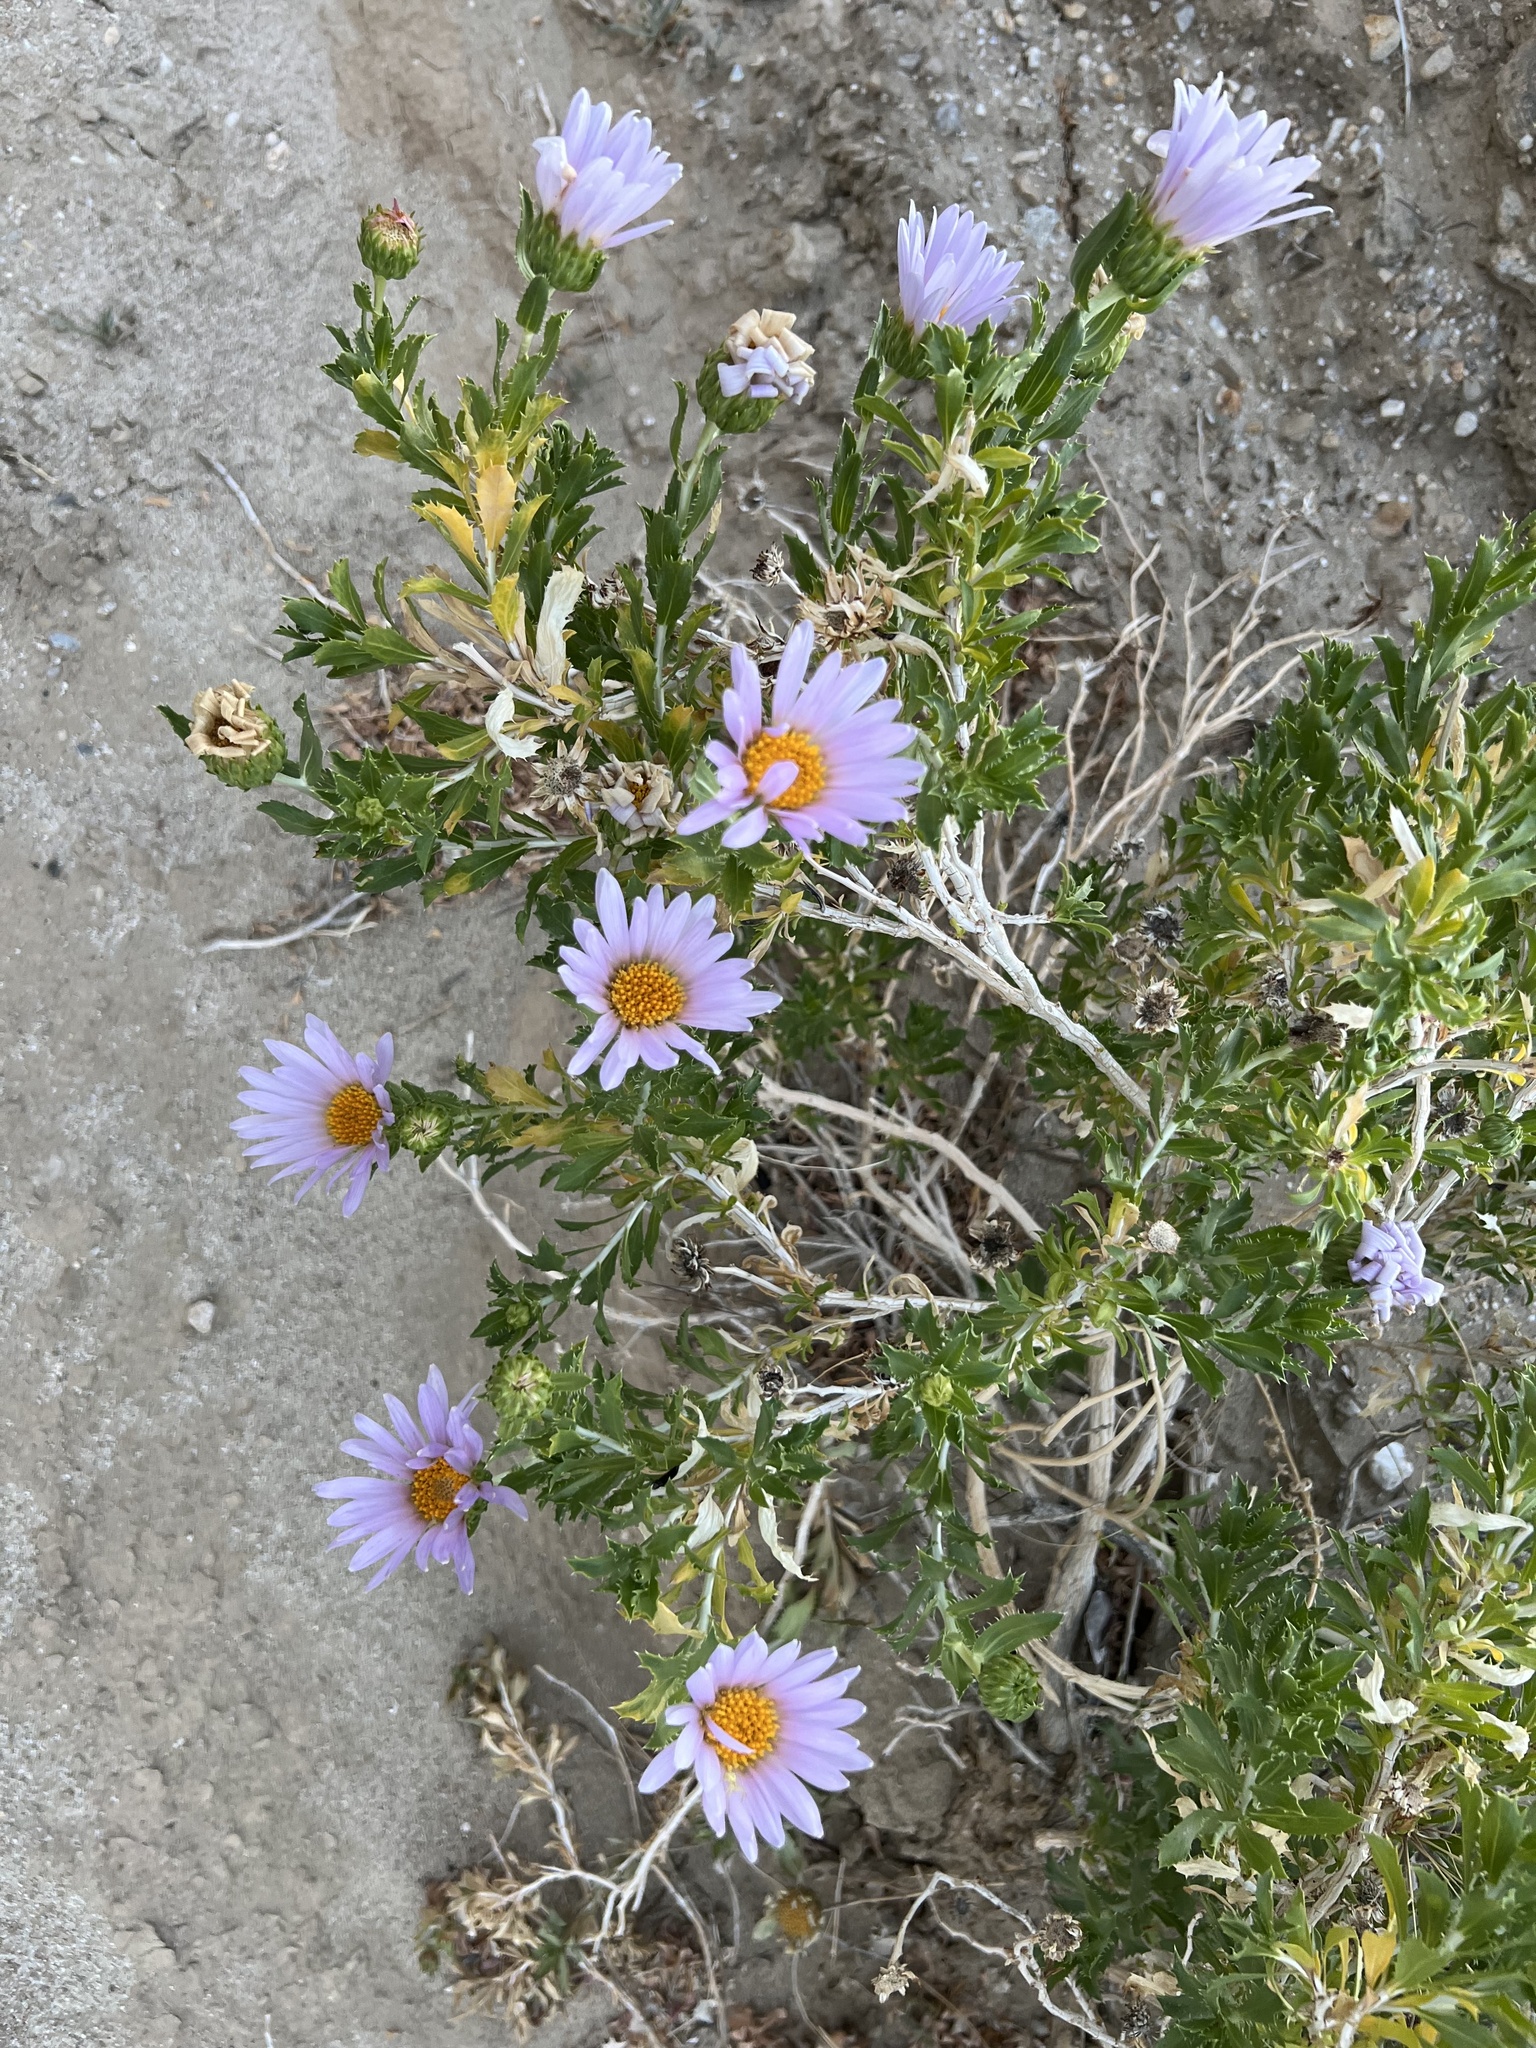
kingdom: Plantae
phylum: Tracheophyta
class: Magnoliopsida
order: Asterales
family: Asteraceae
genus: Xylorhiza
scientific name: Xylorhiza orcuttii
